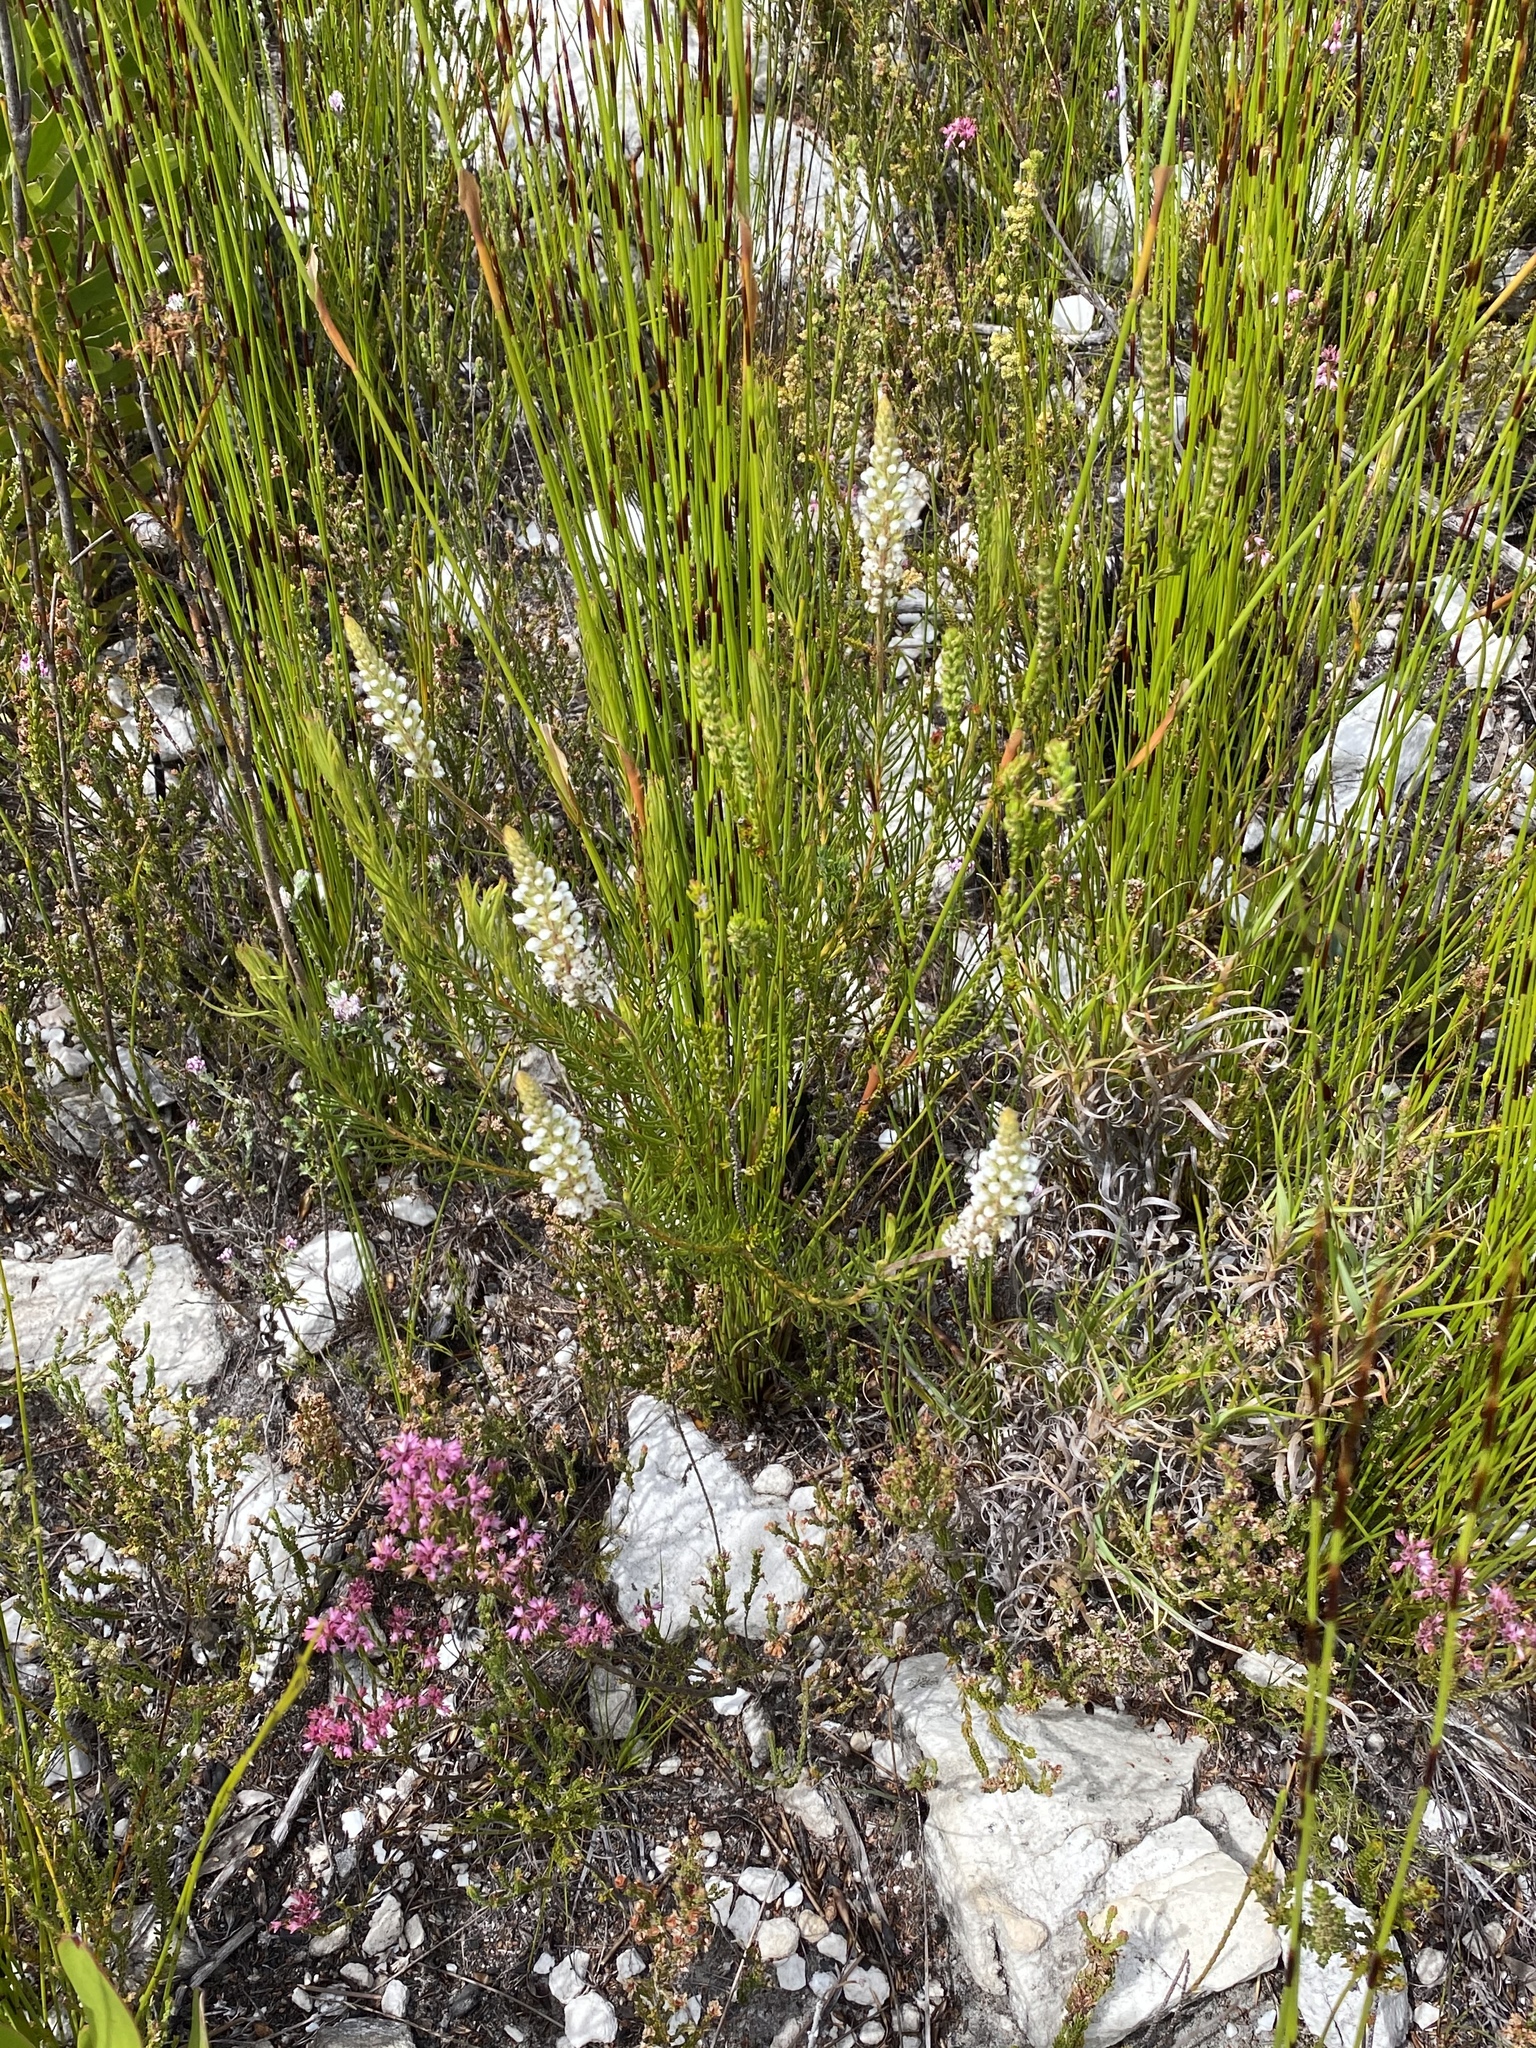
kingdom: Plantae
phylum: Tracheophyta
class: Magnoliopsida
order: Proteales
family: Proteaceae
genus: Spatalla
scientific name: Spatalla racemosa
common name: Lax-stalked spoon
